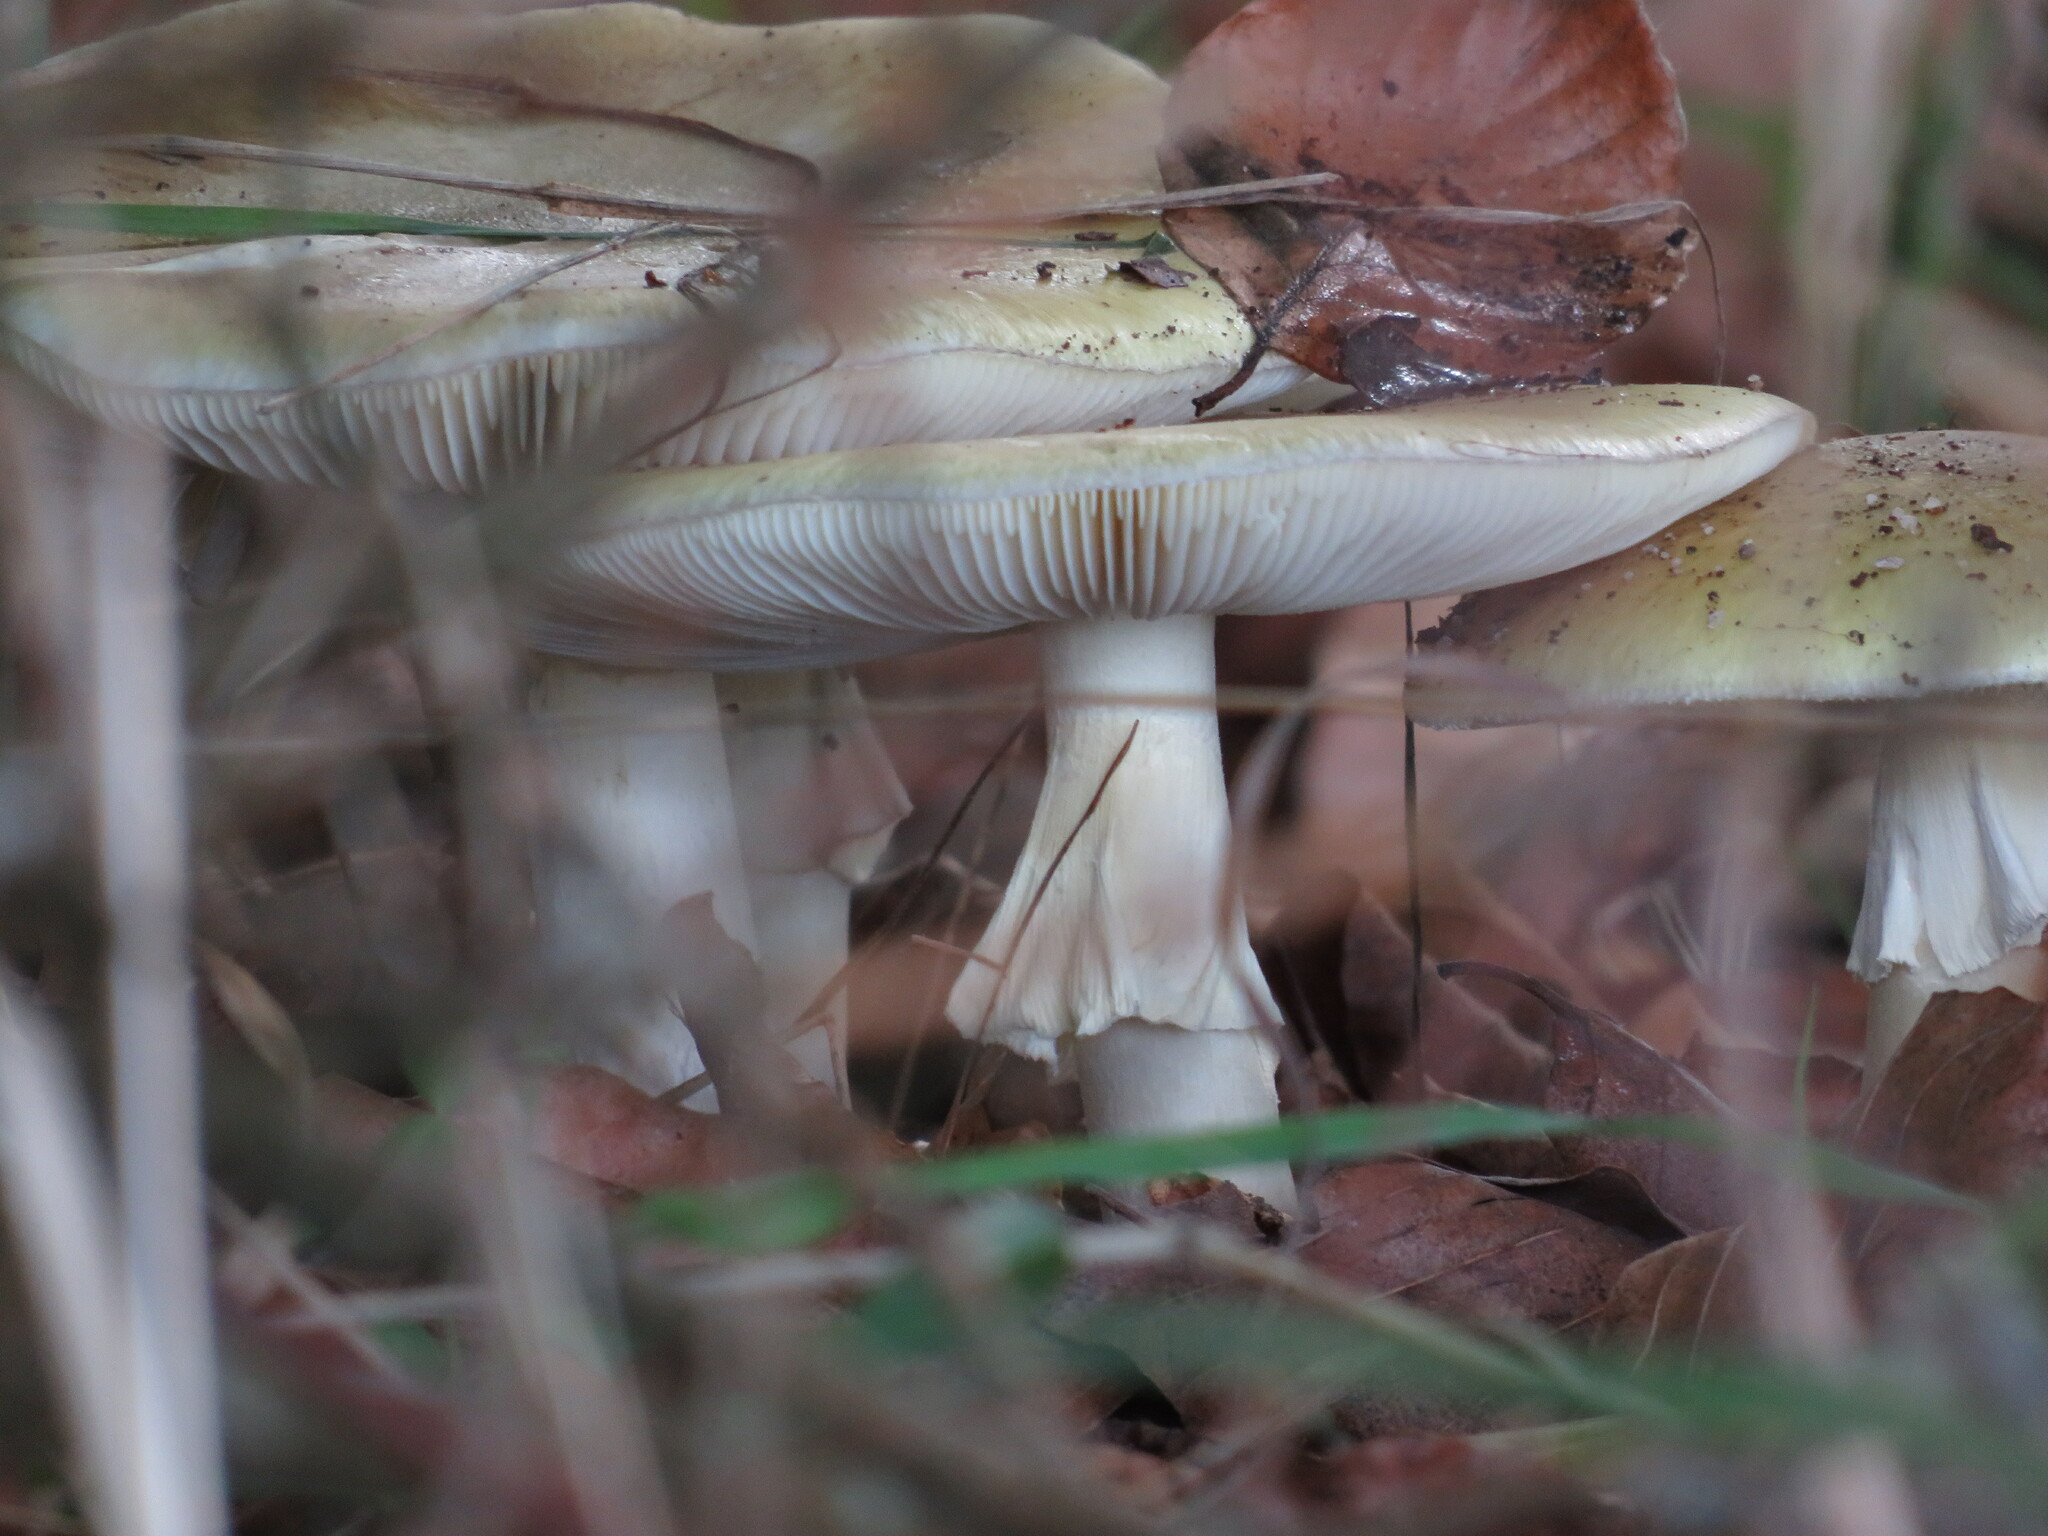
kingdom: Fungi
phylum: Basidiomycota
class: Agaricomycetes
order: Agaricales
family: Amanitaceae
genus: Amanita
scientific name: Amanita phalloides
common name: Death cap
